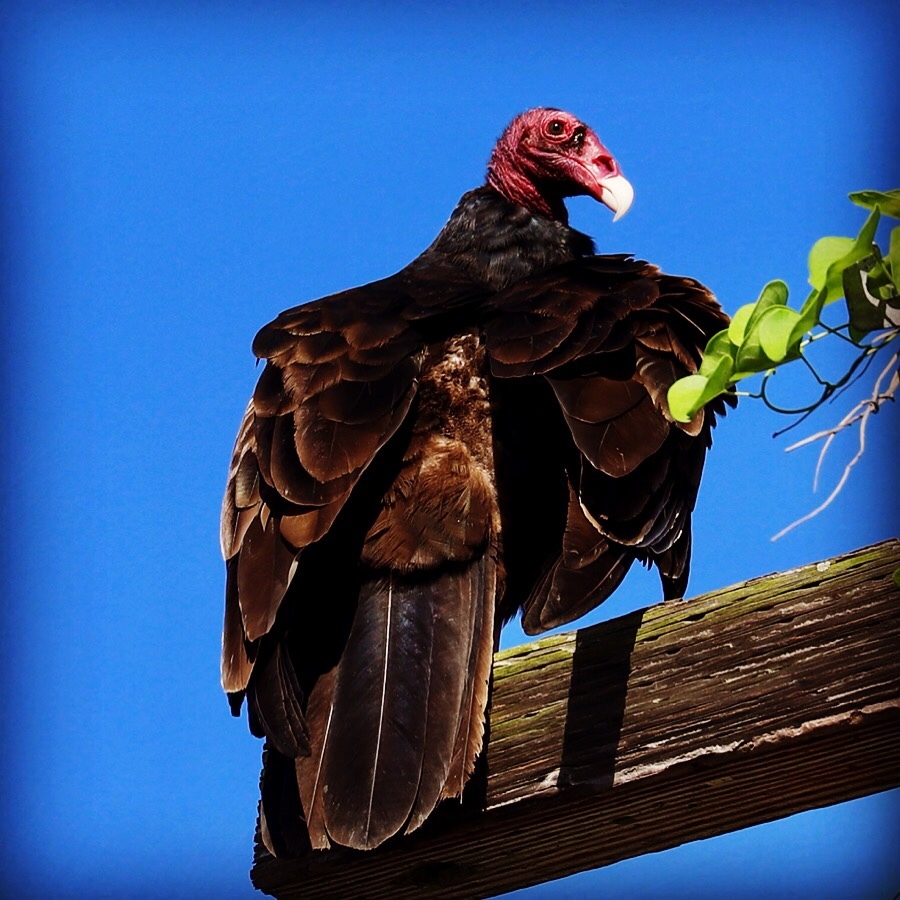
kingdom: Animalia
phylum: Chordata
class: Aves
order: Accipitriformes
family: Cathartidae
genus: Cathartes
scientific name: Cathartes aura
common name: Turkey vulture
